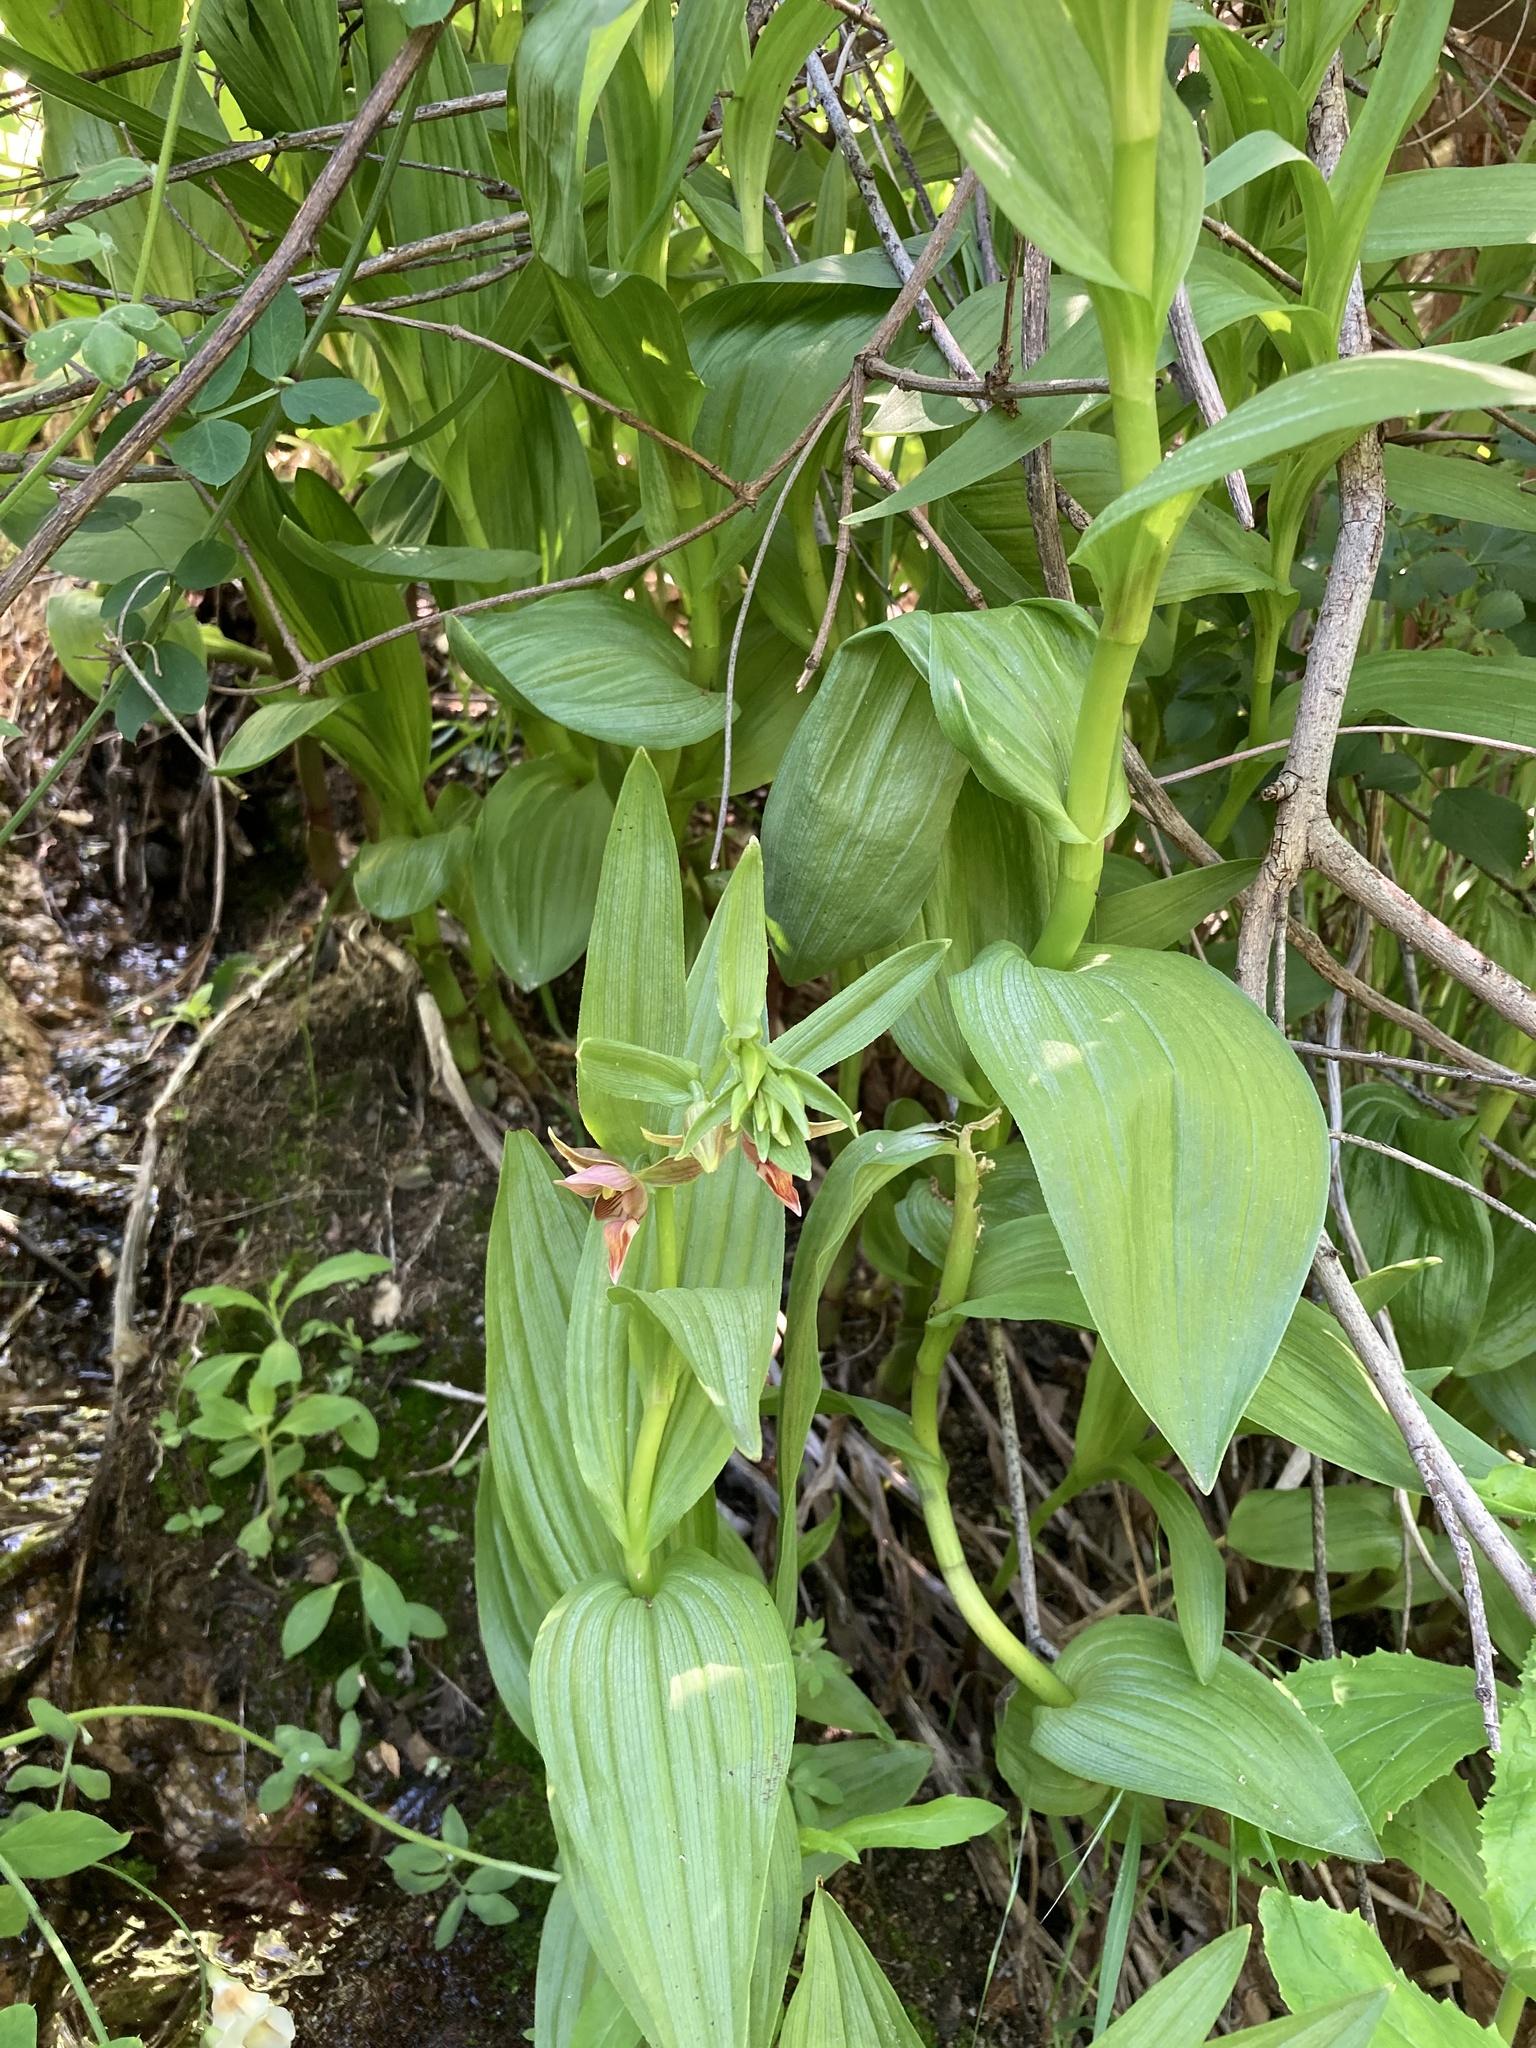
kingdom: Plantae
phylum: Tracheophyta
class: Liliopsida
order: Asparagales
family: Orchidaceae
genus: Epipactis
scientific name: Epipactis gigantea
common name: Chatterbox
